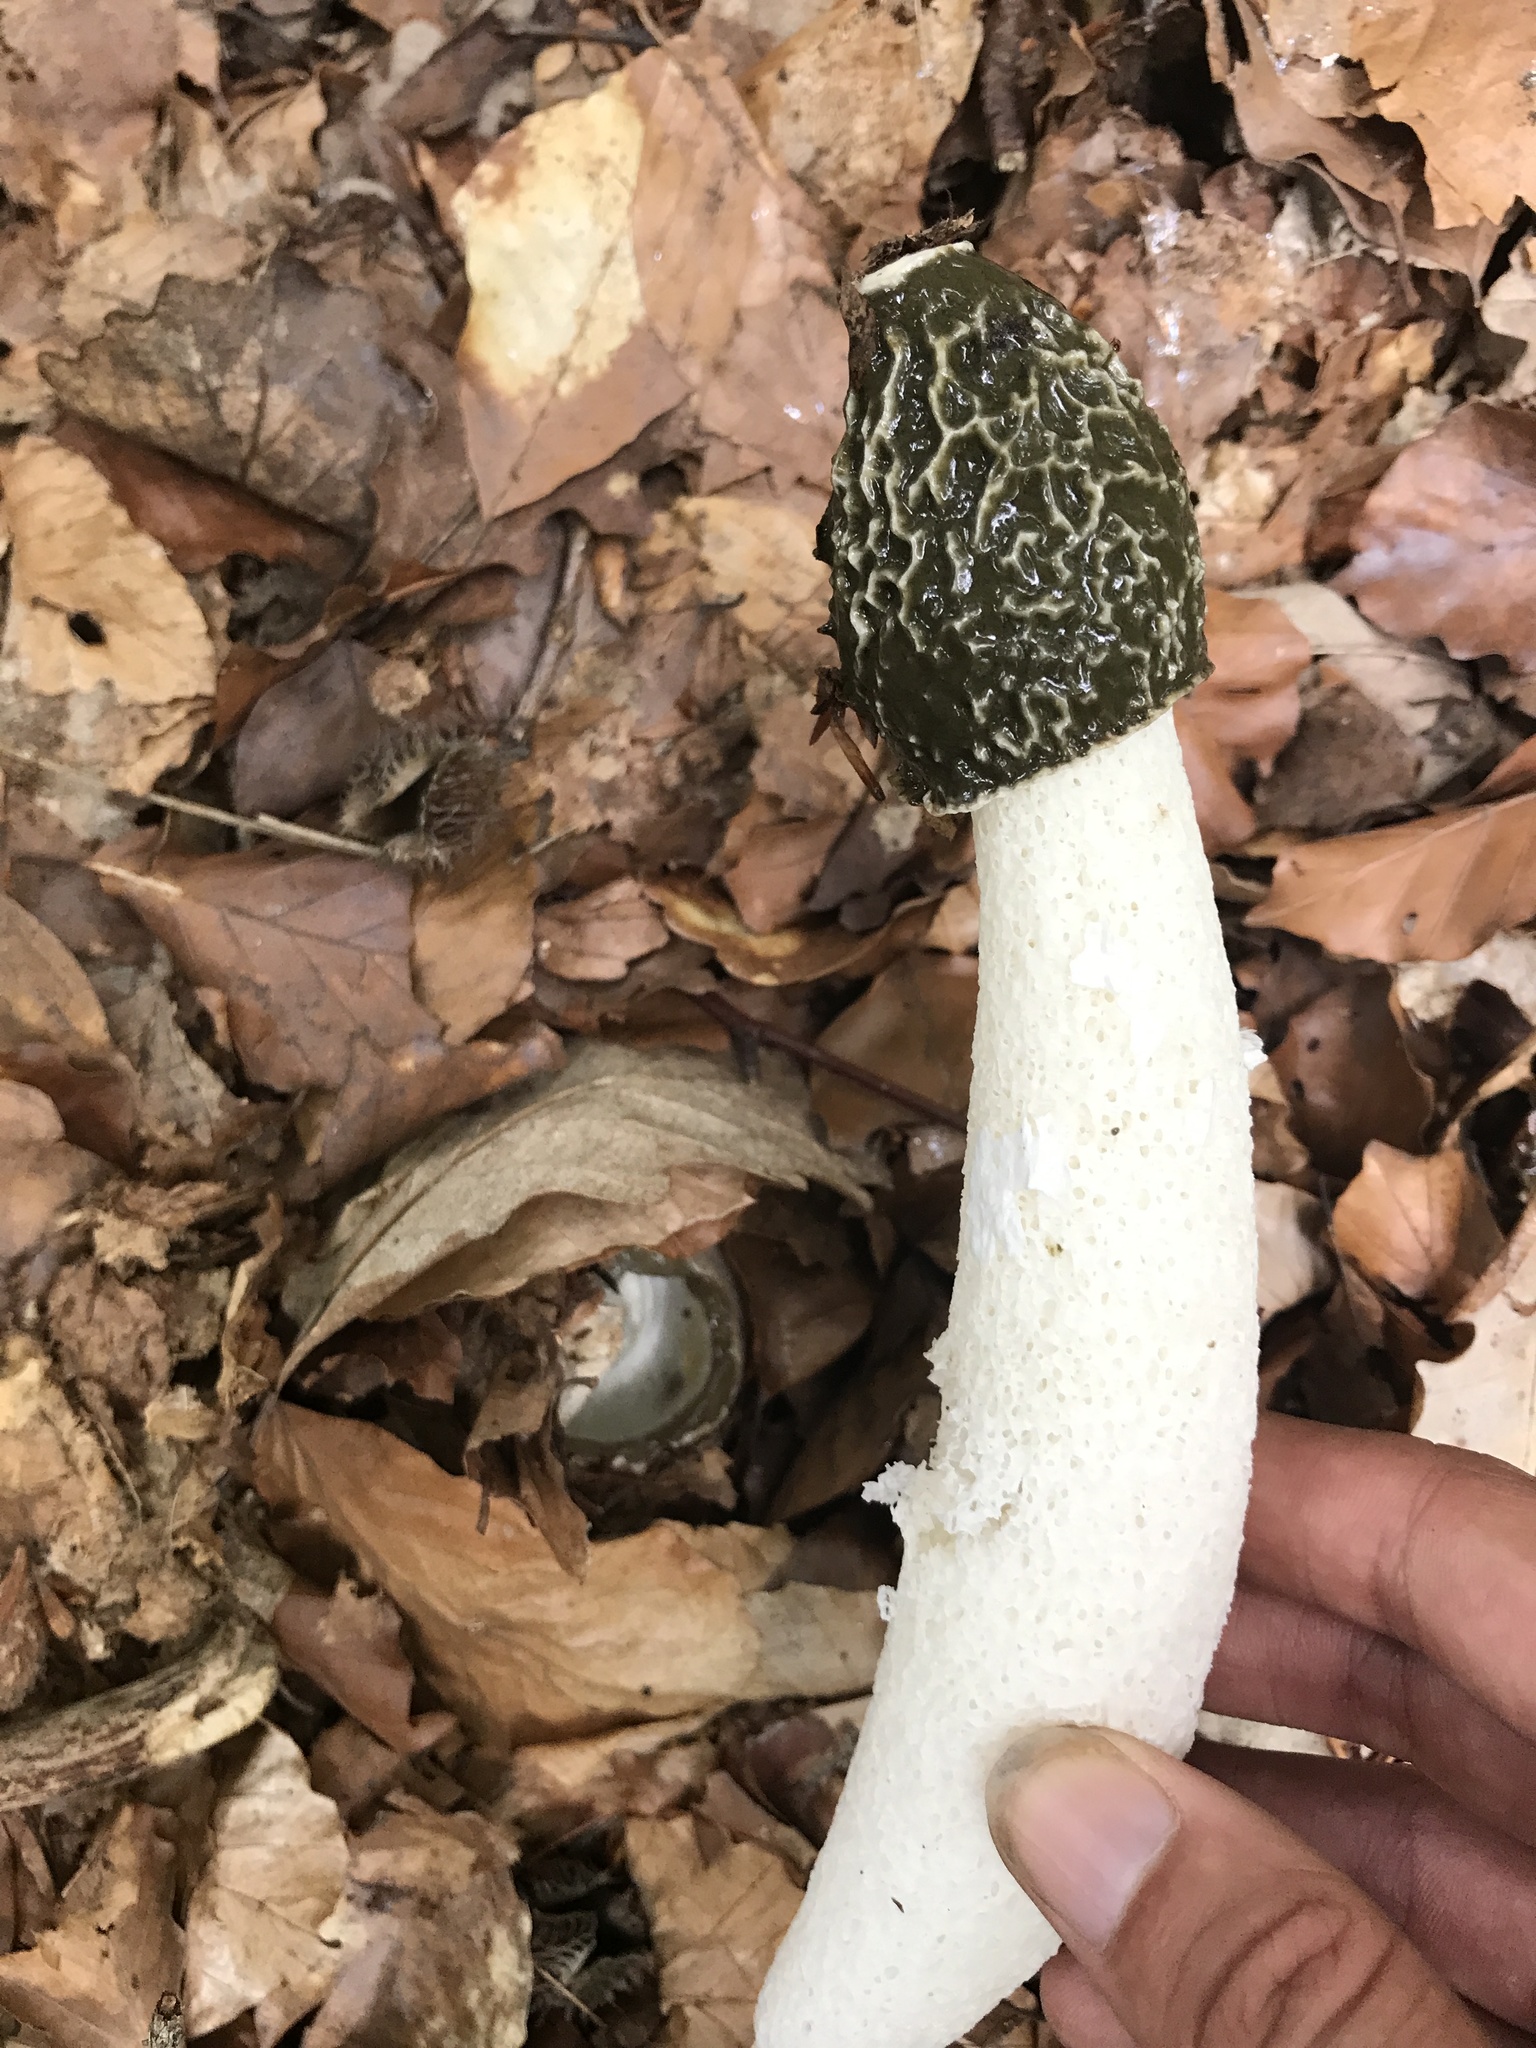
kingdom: Fungi
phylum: Basidiomycota
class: Agaricomycetes
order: Phallales
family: Phallaceae
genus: Phallus
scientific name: Phallus impudicus
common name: Common stinkhorn
